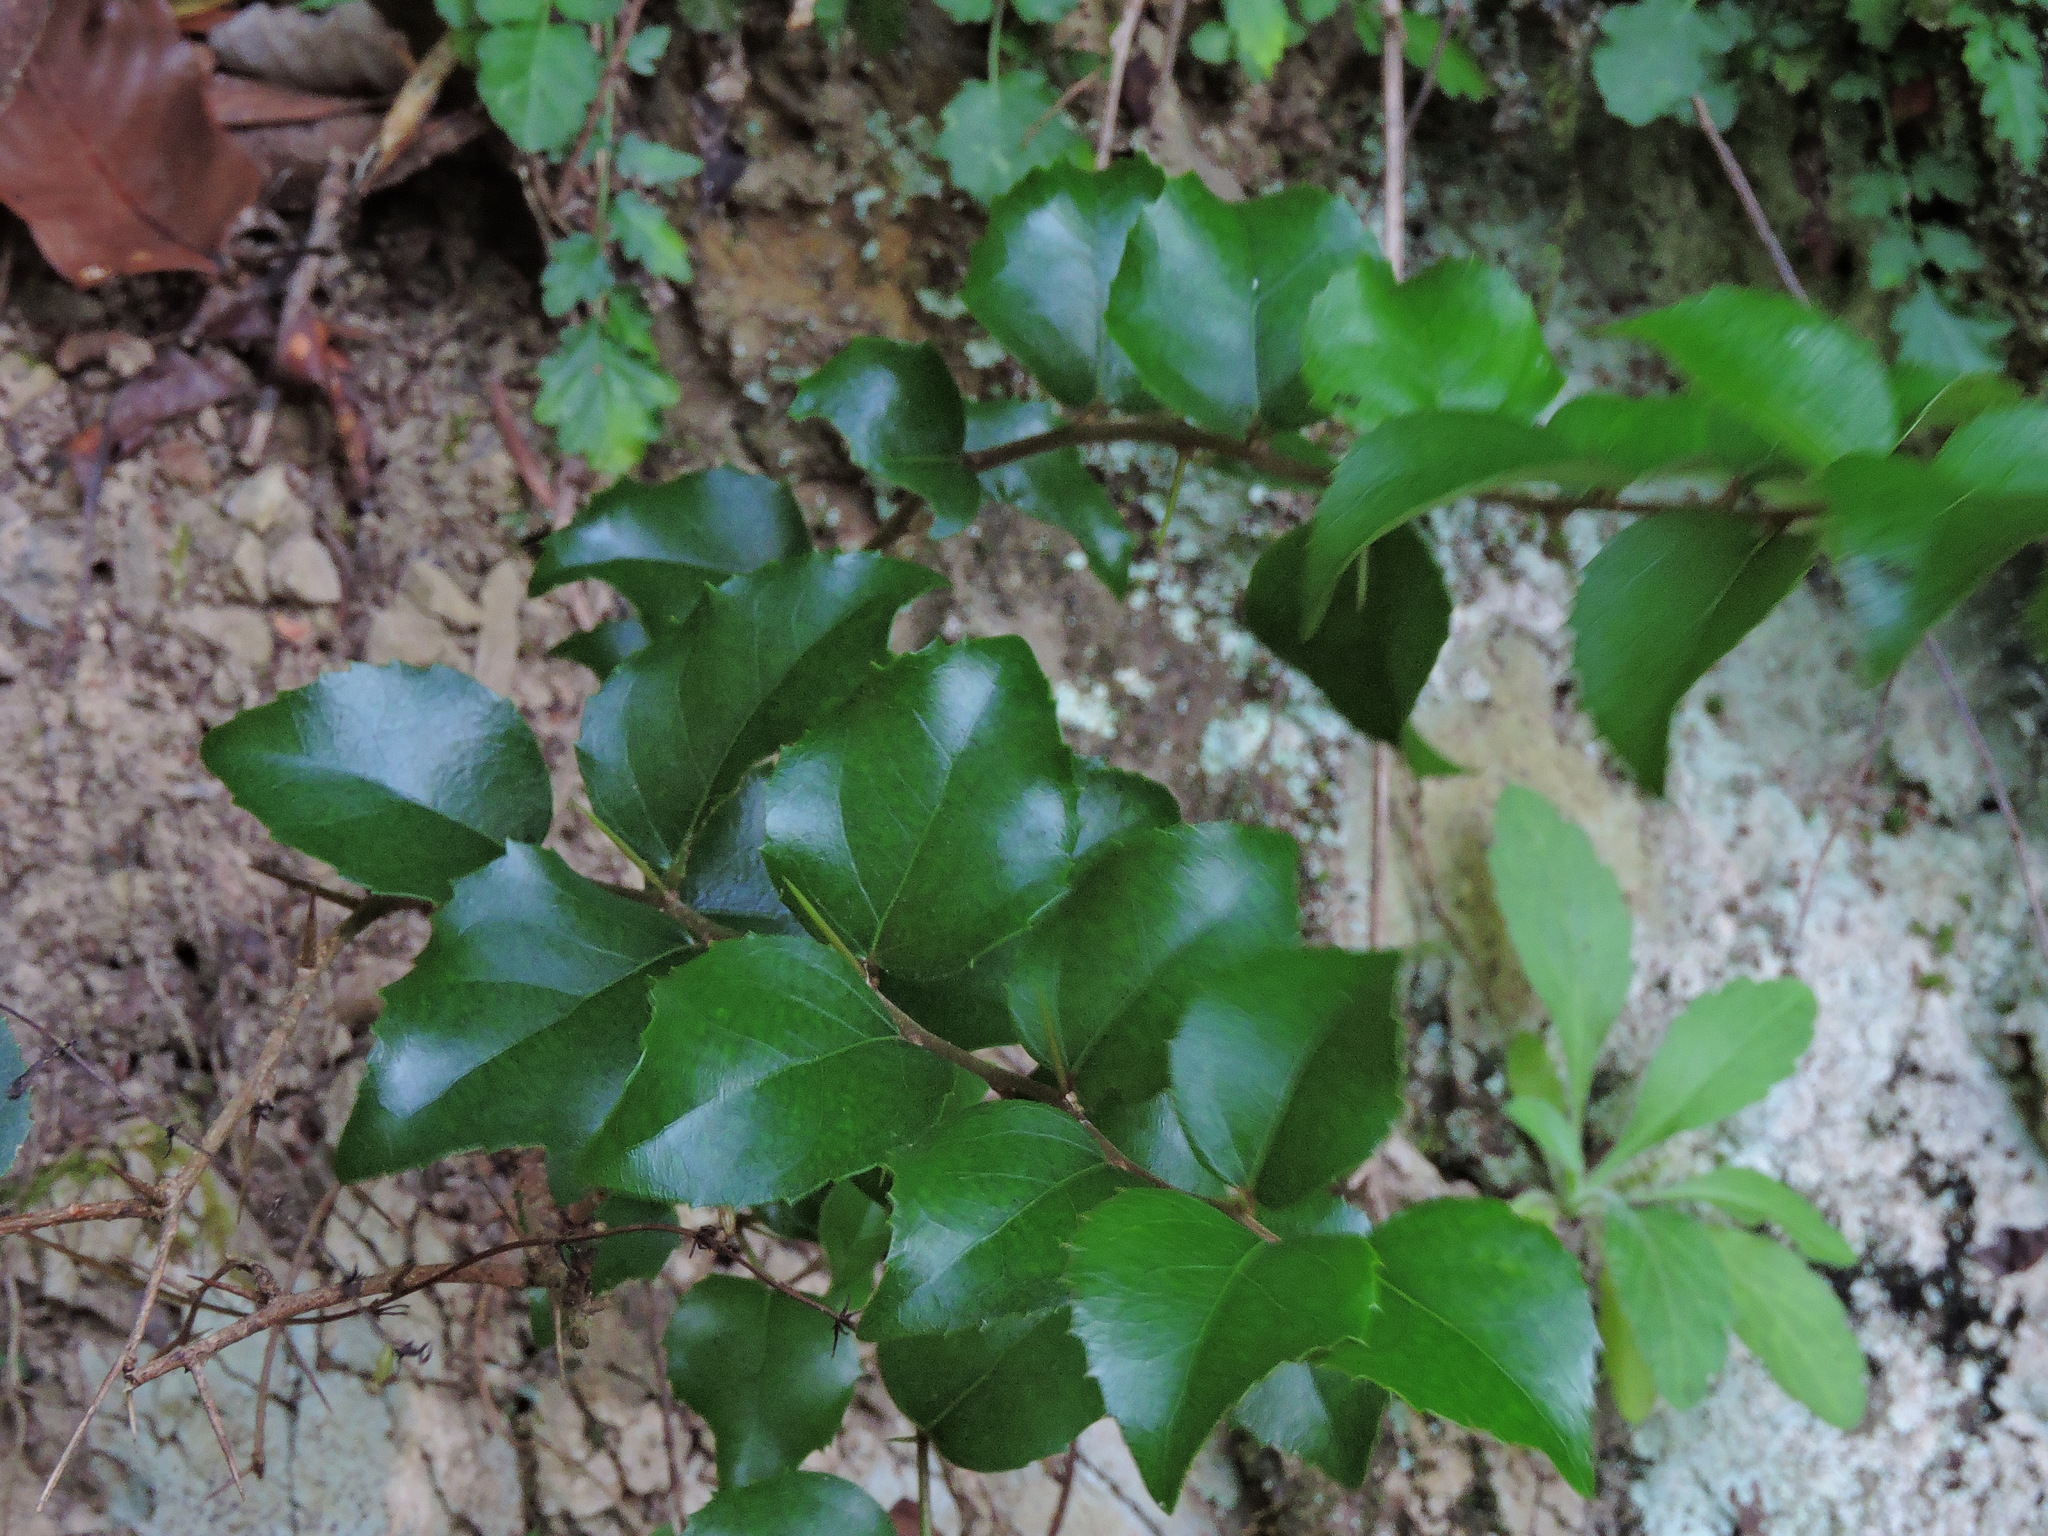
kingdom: Plantae
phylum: Tracheophyta
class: Magnoliopsida
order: Malpighiales
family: Salicaceae
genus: Xylosma
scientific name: Xylosma racemosum
